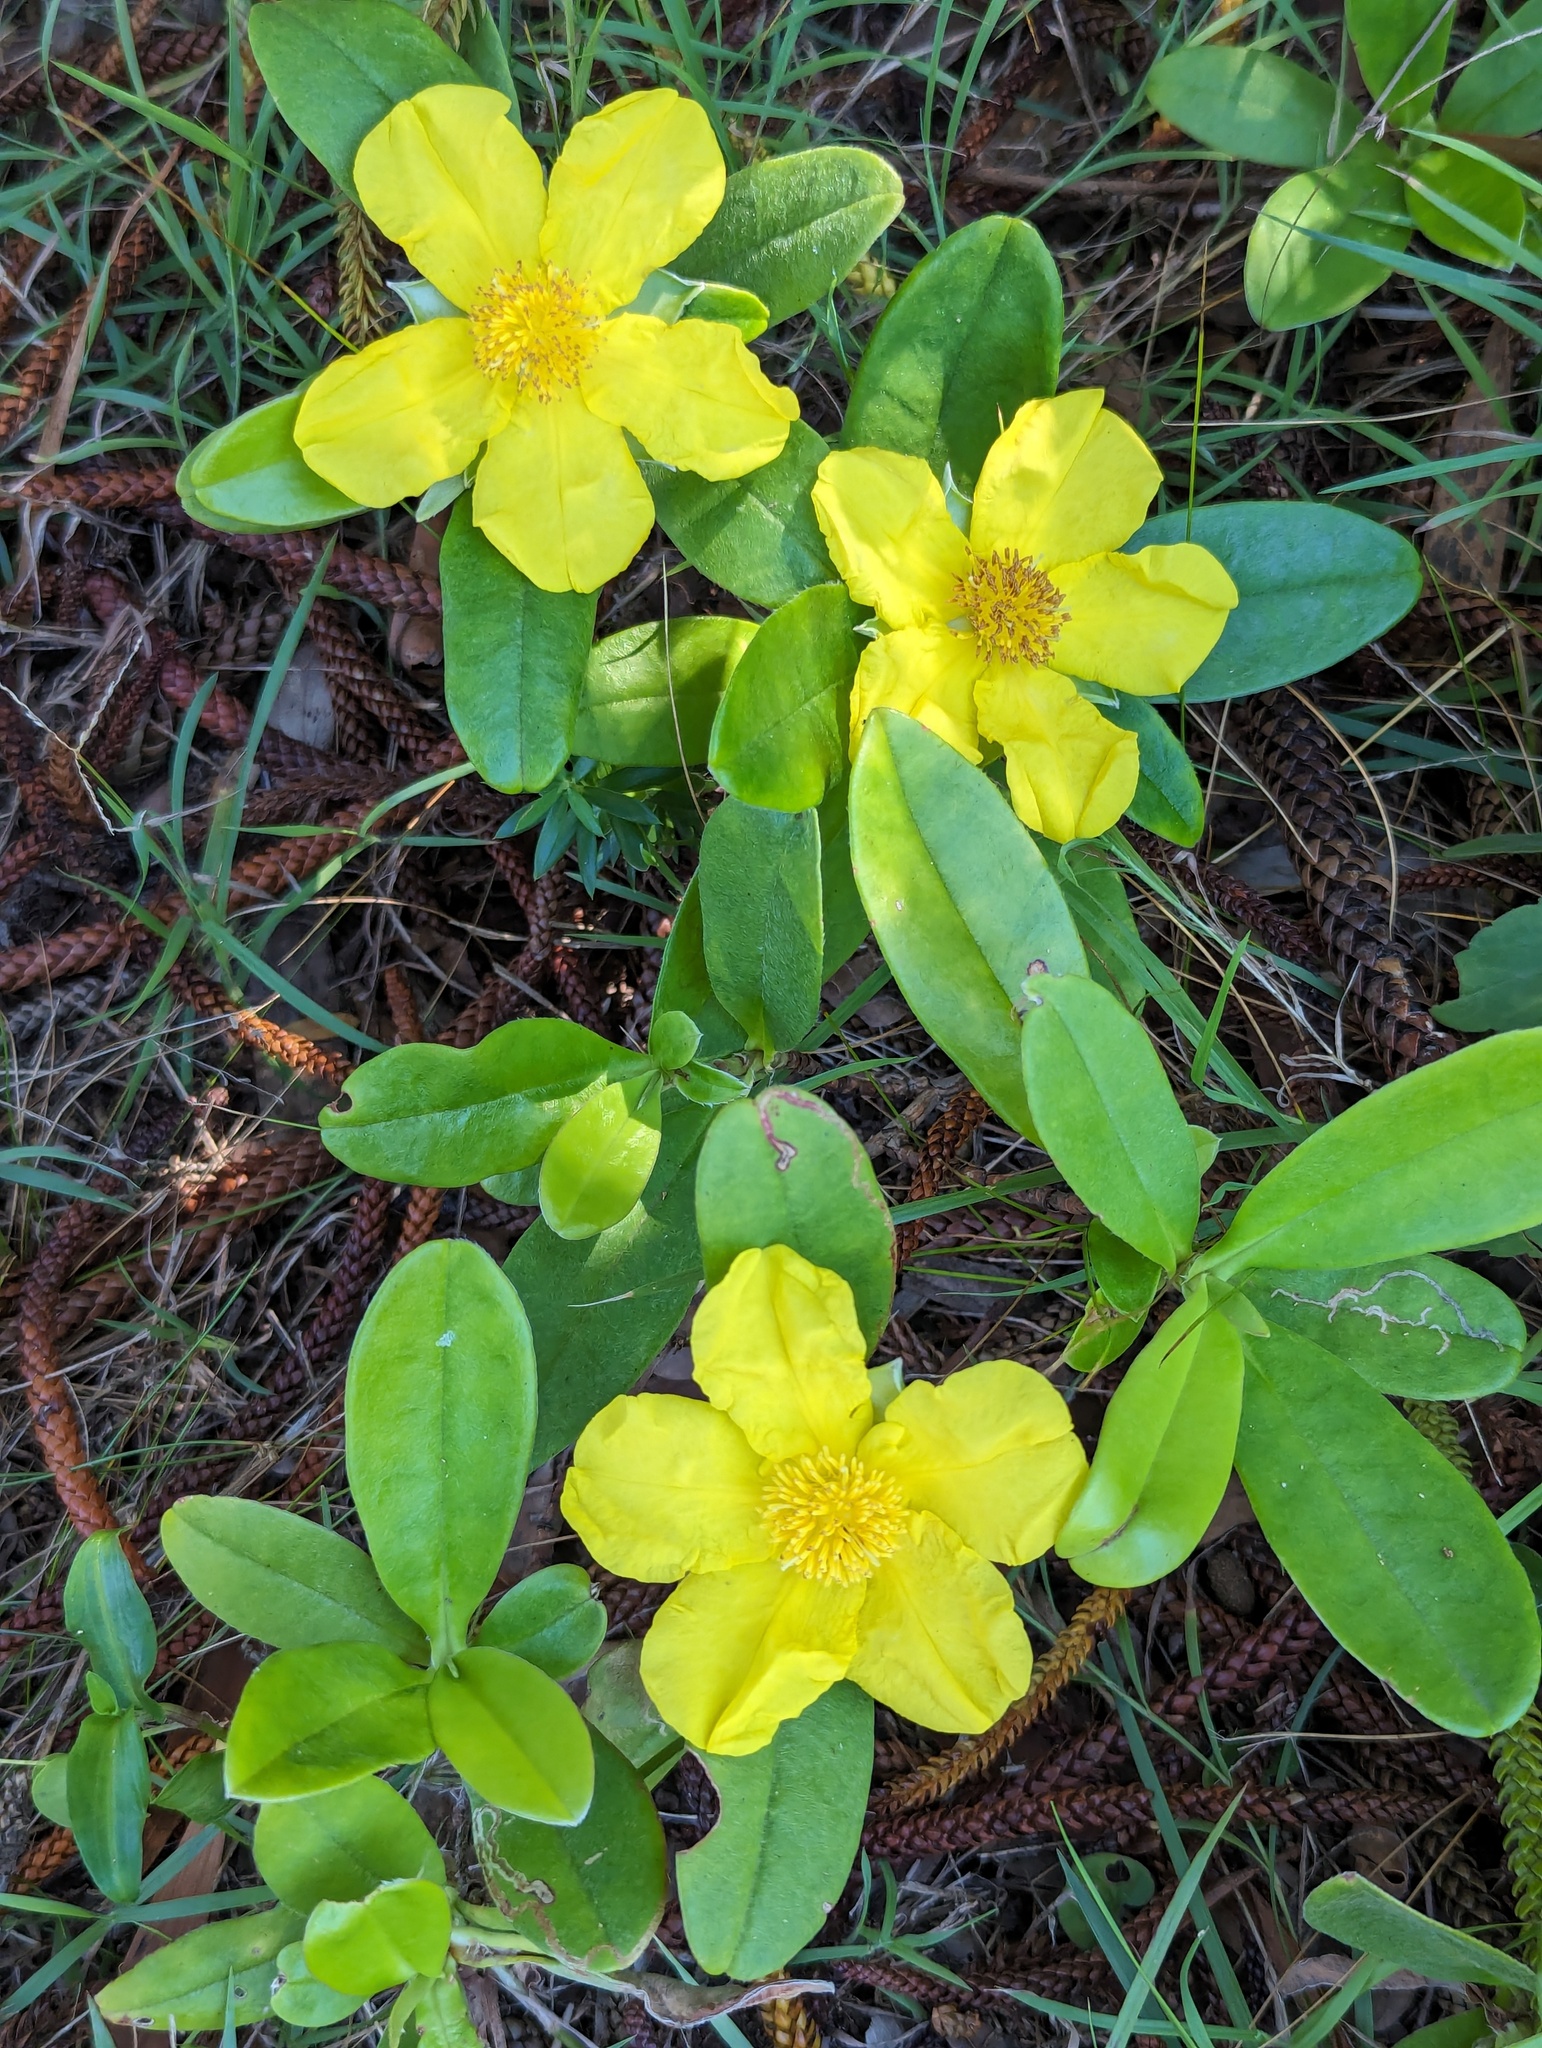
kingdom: Plantae
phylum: Tracheophyta
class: Magnoliopsida
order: Dilleniales
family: Dilleniaceae
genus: Hibbertia
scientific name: Hibbertia scandens
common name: Climbing guinea-flower
